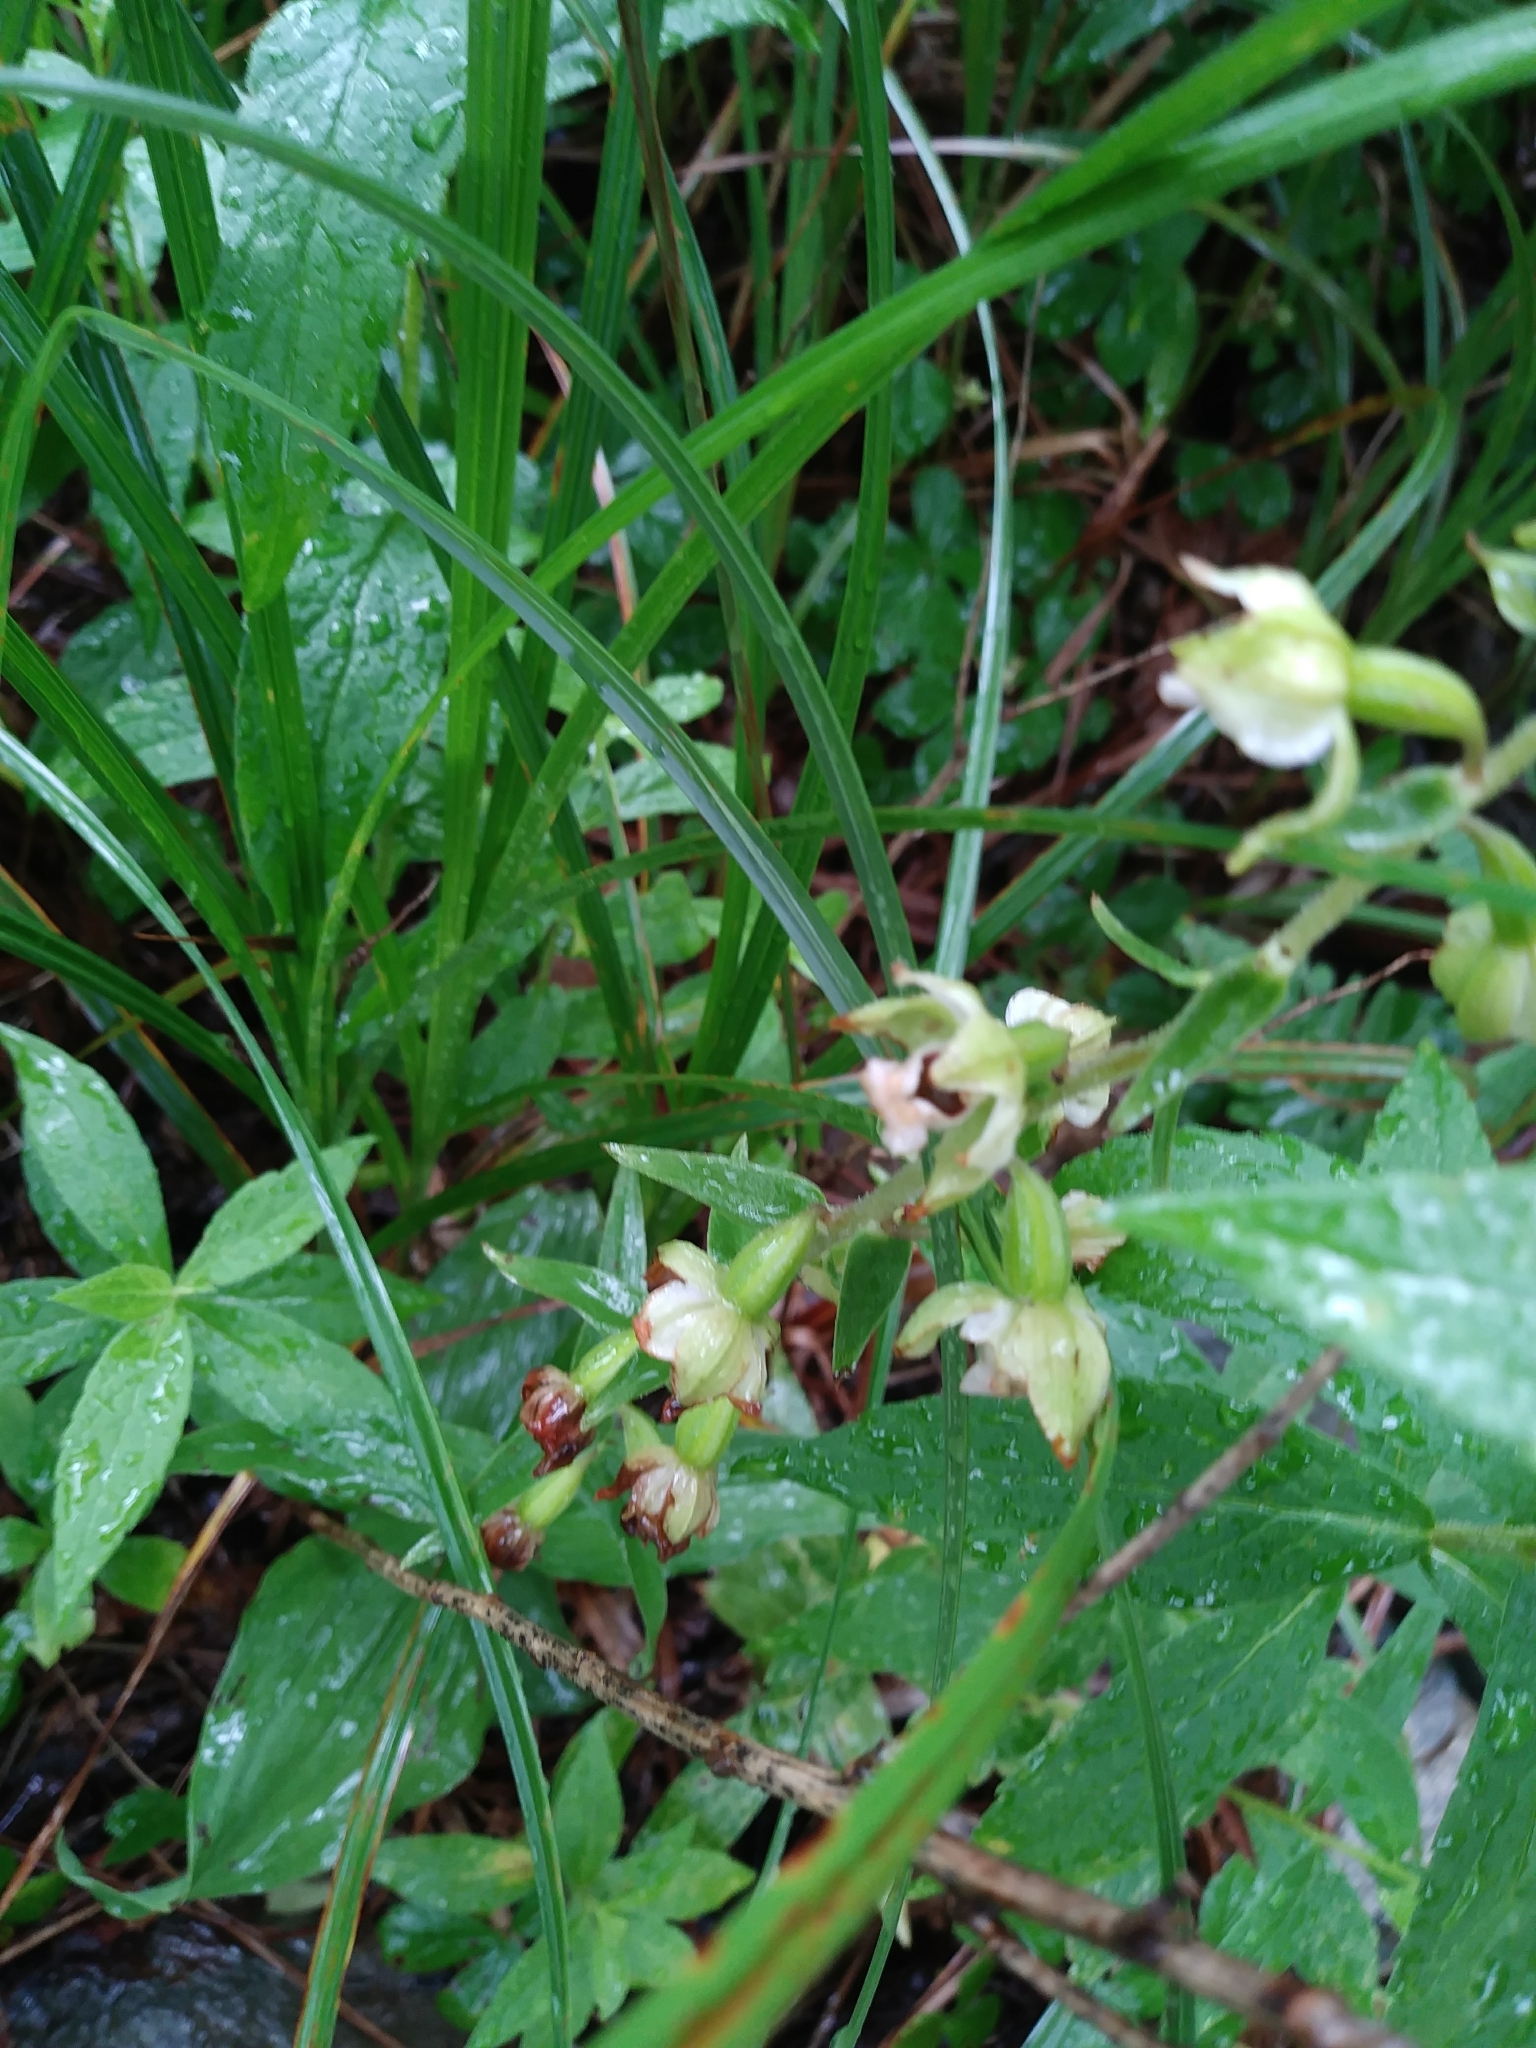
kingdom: Plantae
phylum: Tracheophyta
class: Liliopsida
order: Asparagales
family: Orchidaceae
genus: Epipactis
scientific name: Epipactis helleborine
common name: Broad-leaved helleborine
